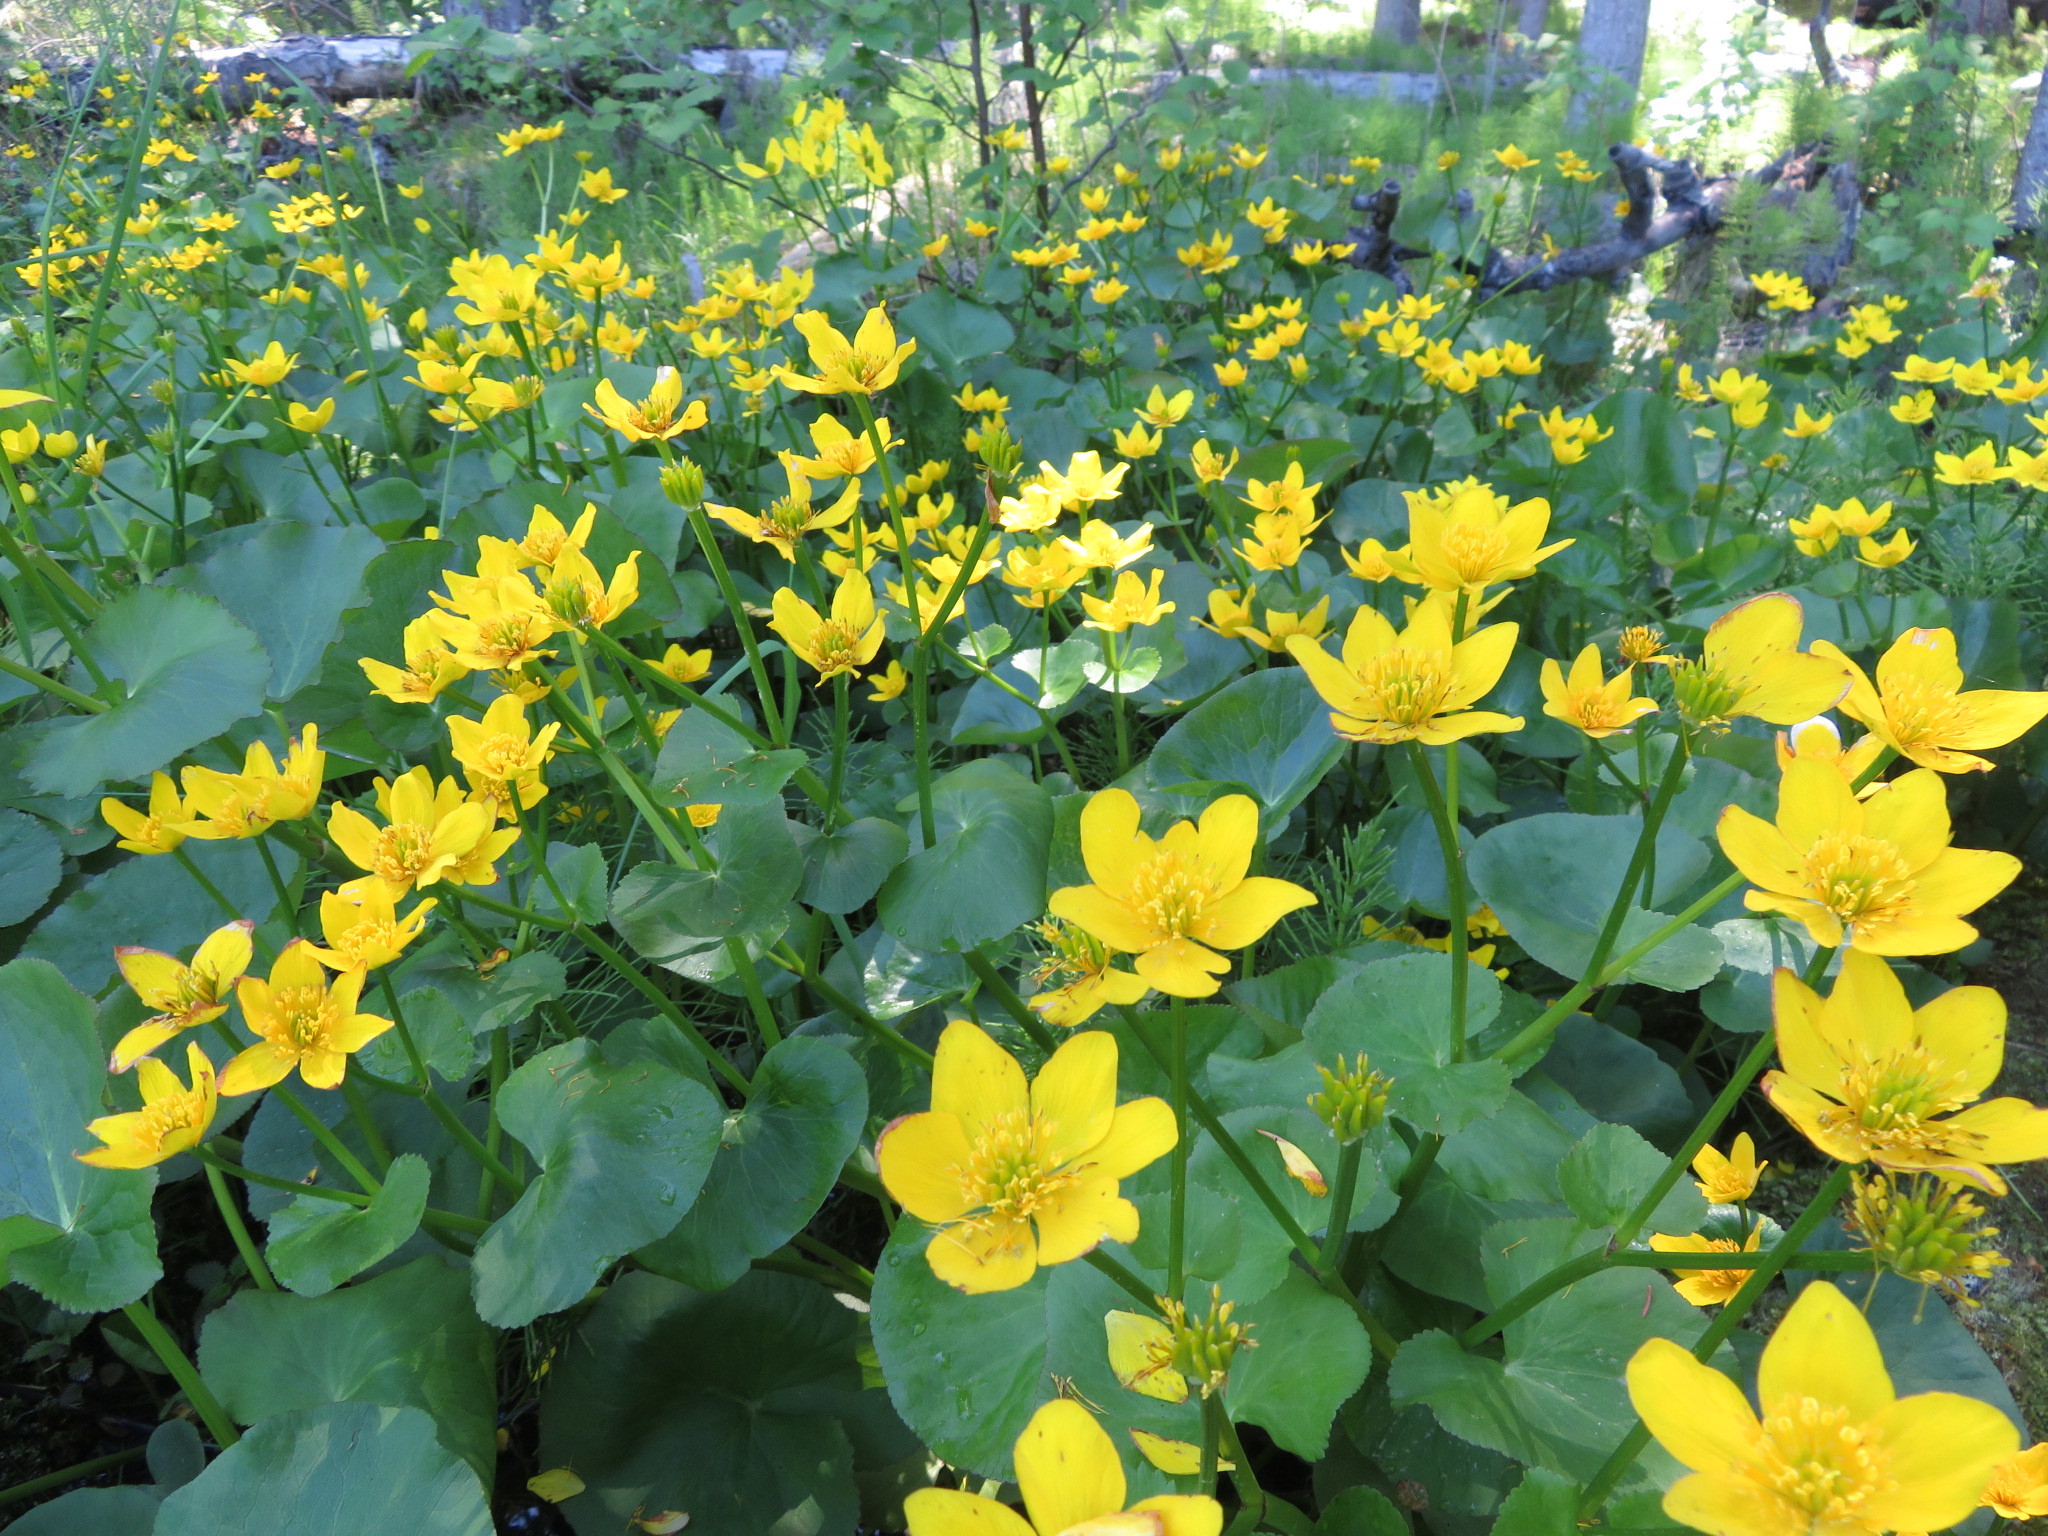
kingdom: Plantae
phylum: Tracheophyta
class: Magnoliopsida
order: Ranunculales
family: Ranunculaceae
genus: Caltha
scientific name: Caltha palustris
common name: Marsh marigold
